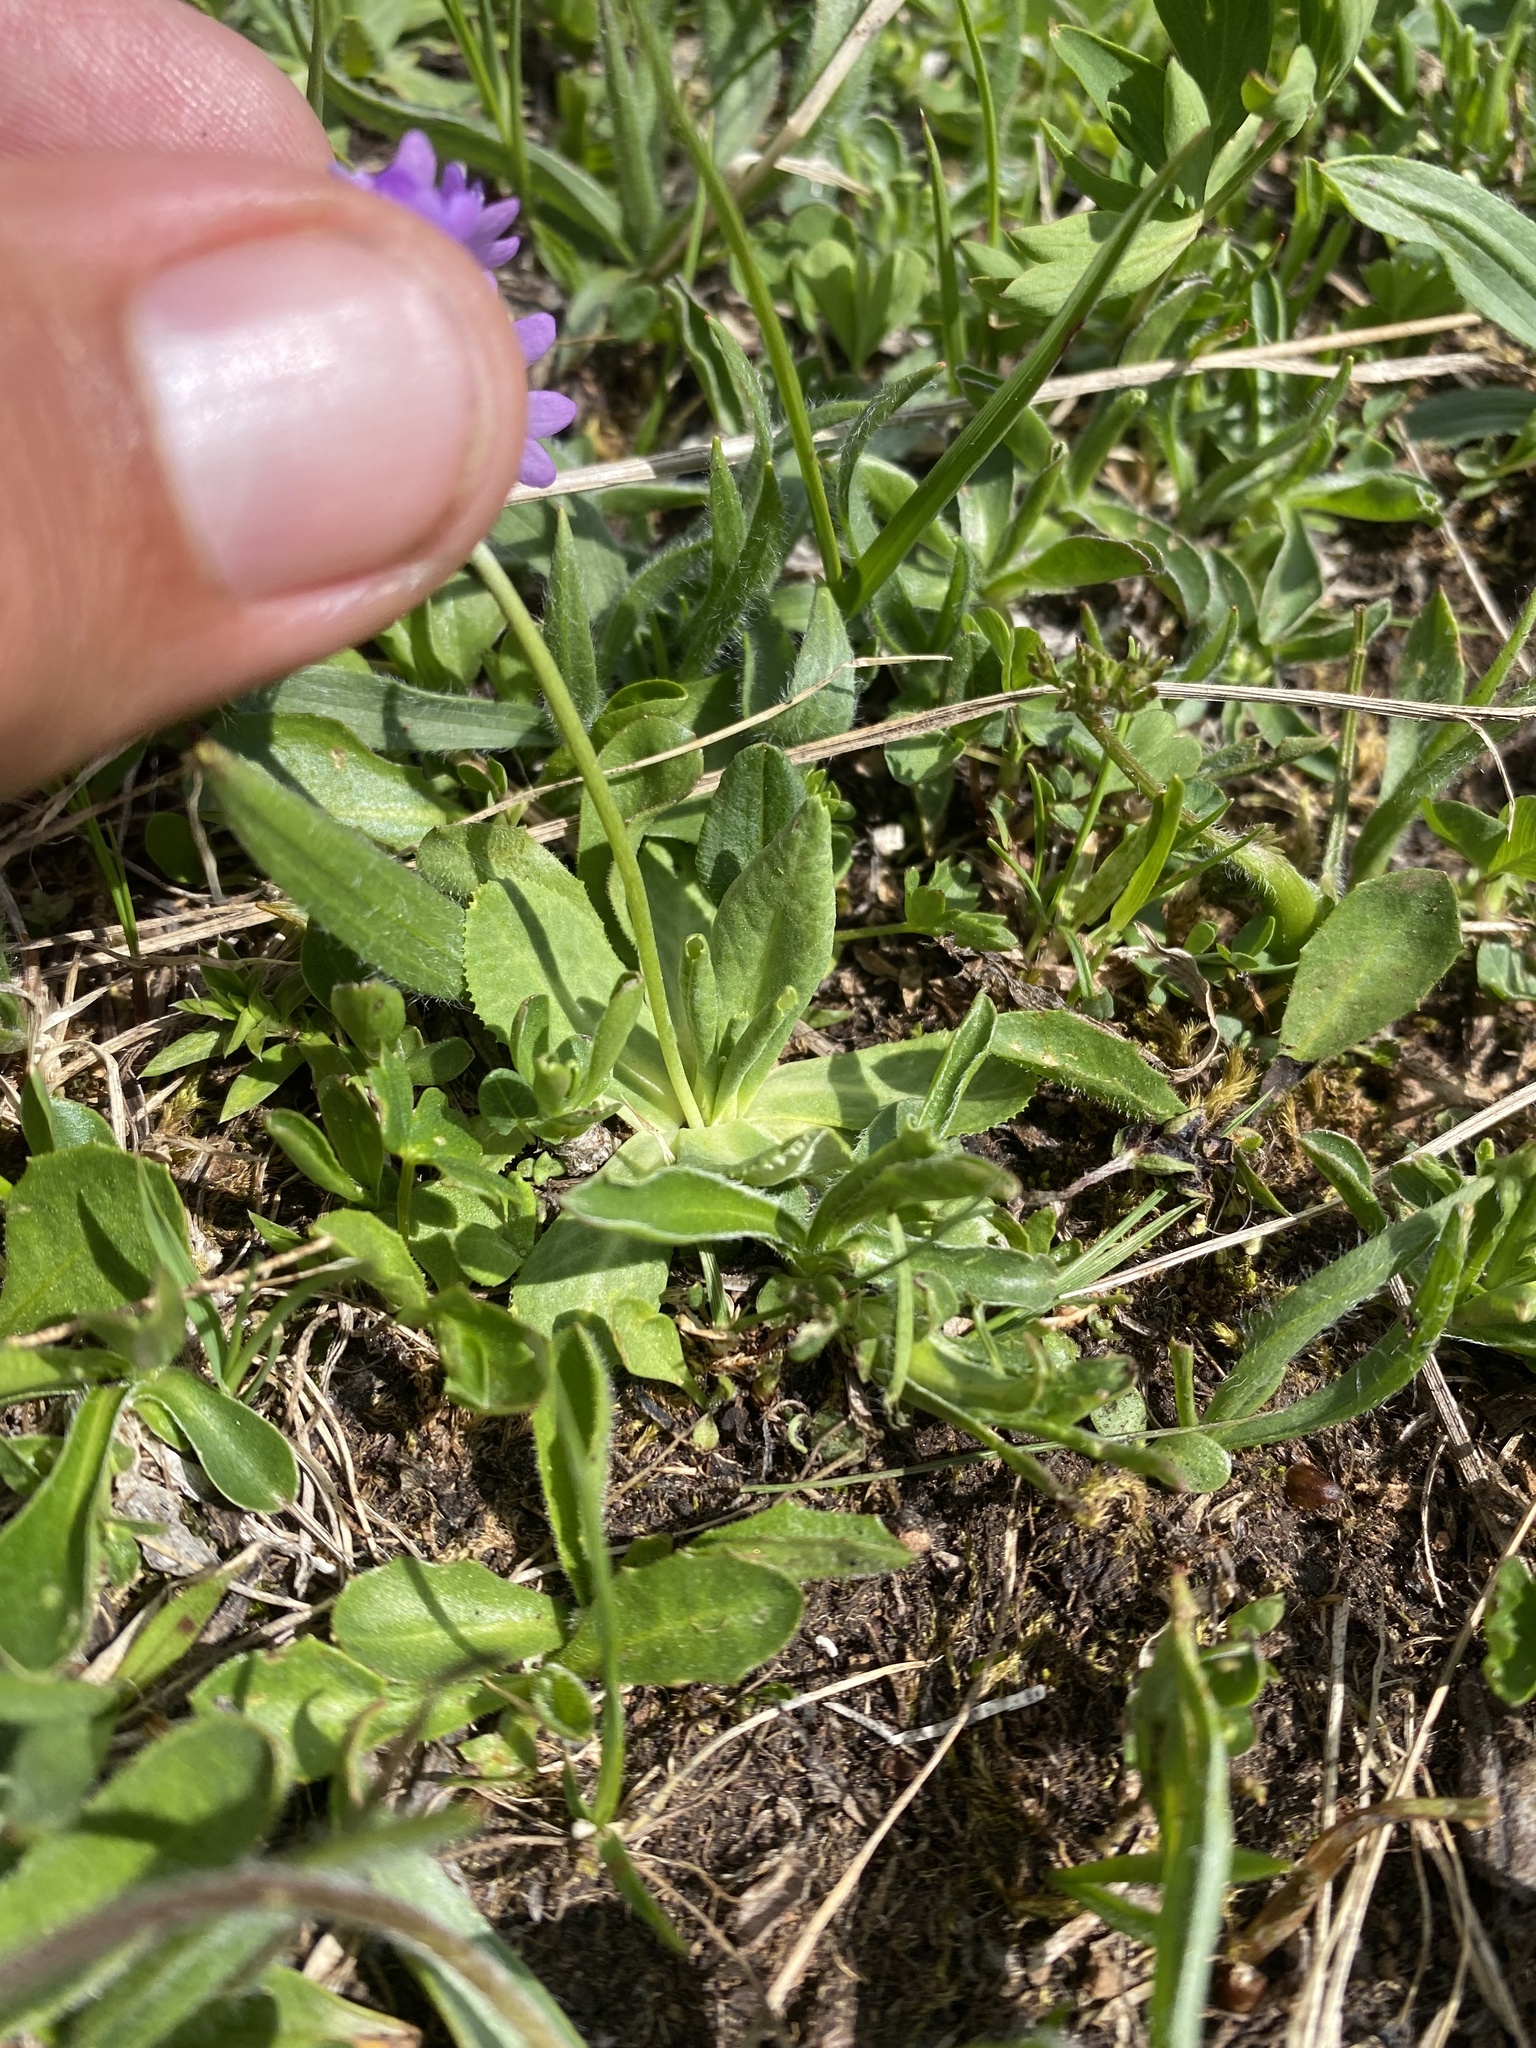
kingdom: Plantae
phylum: Tracheophyta
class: Magnoliopsida
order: Ericales
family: Primulaceae
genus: Primula
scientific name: Primula algida
